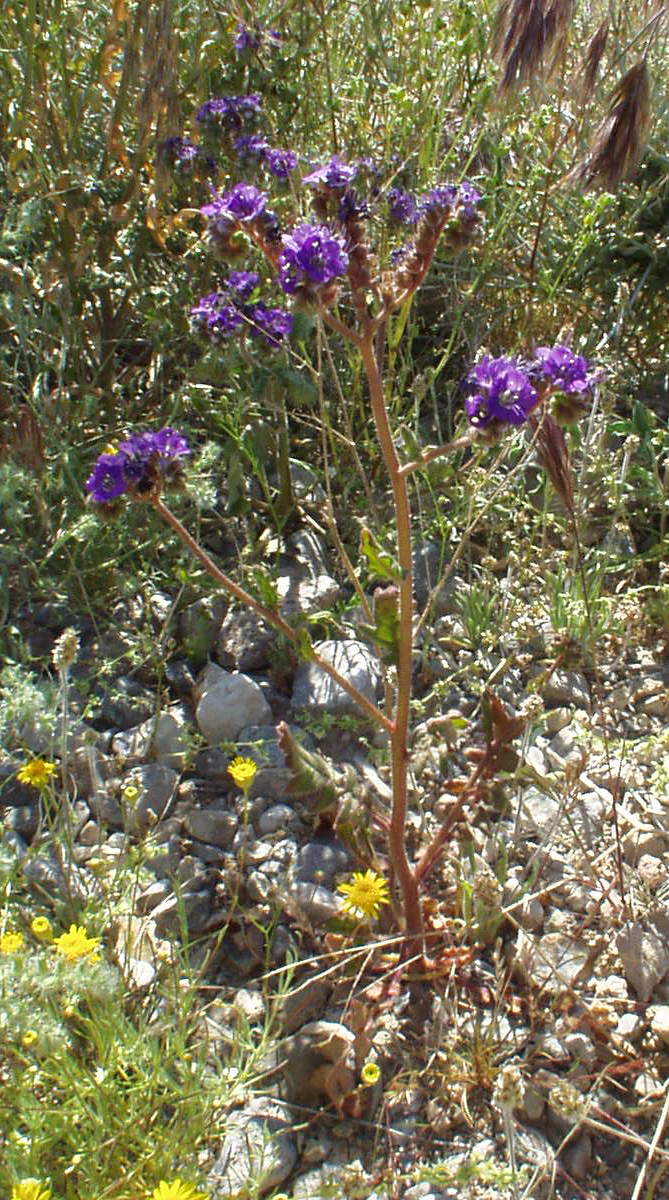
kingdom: Plantae
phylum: Tracheophyta
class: Magnoliopsida
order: Boraginales
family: Hydrophyllaceae
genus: Phacelia
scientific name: Phacelia crenulata
